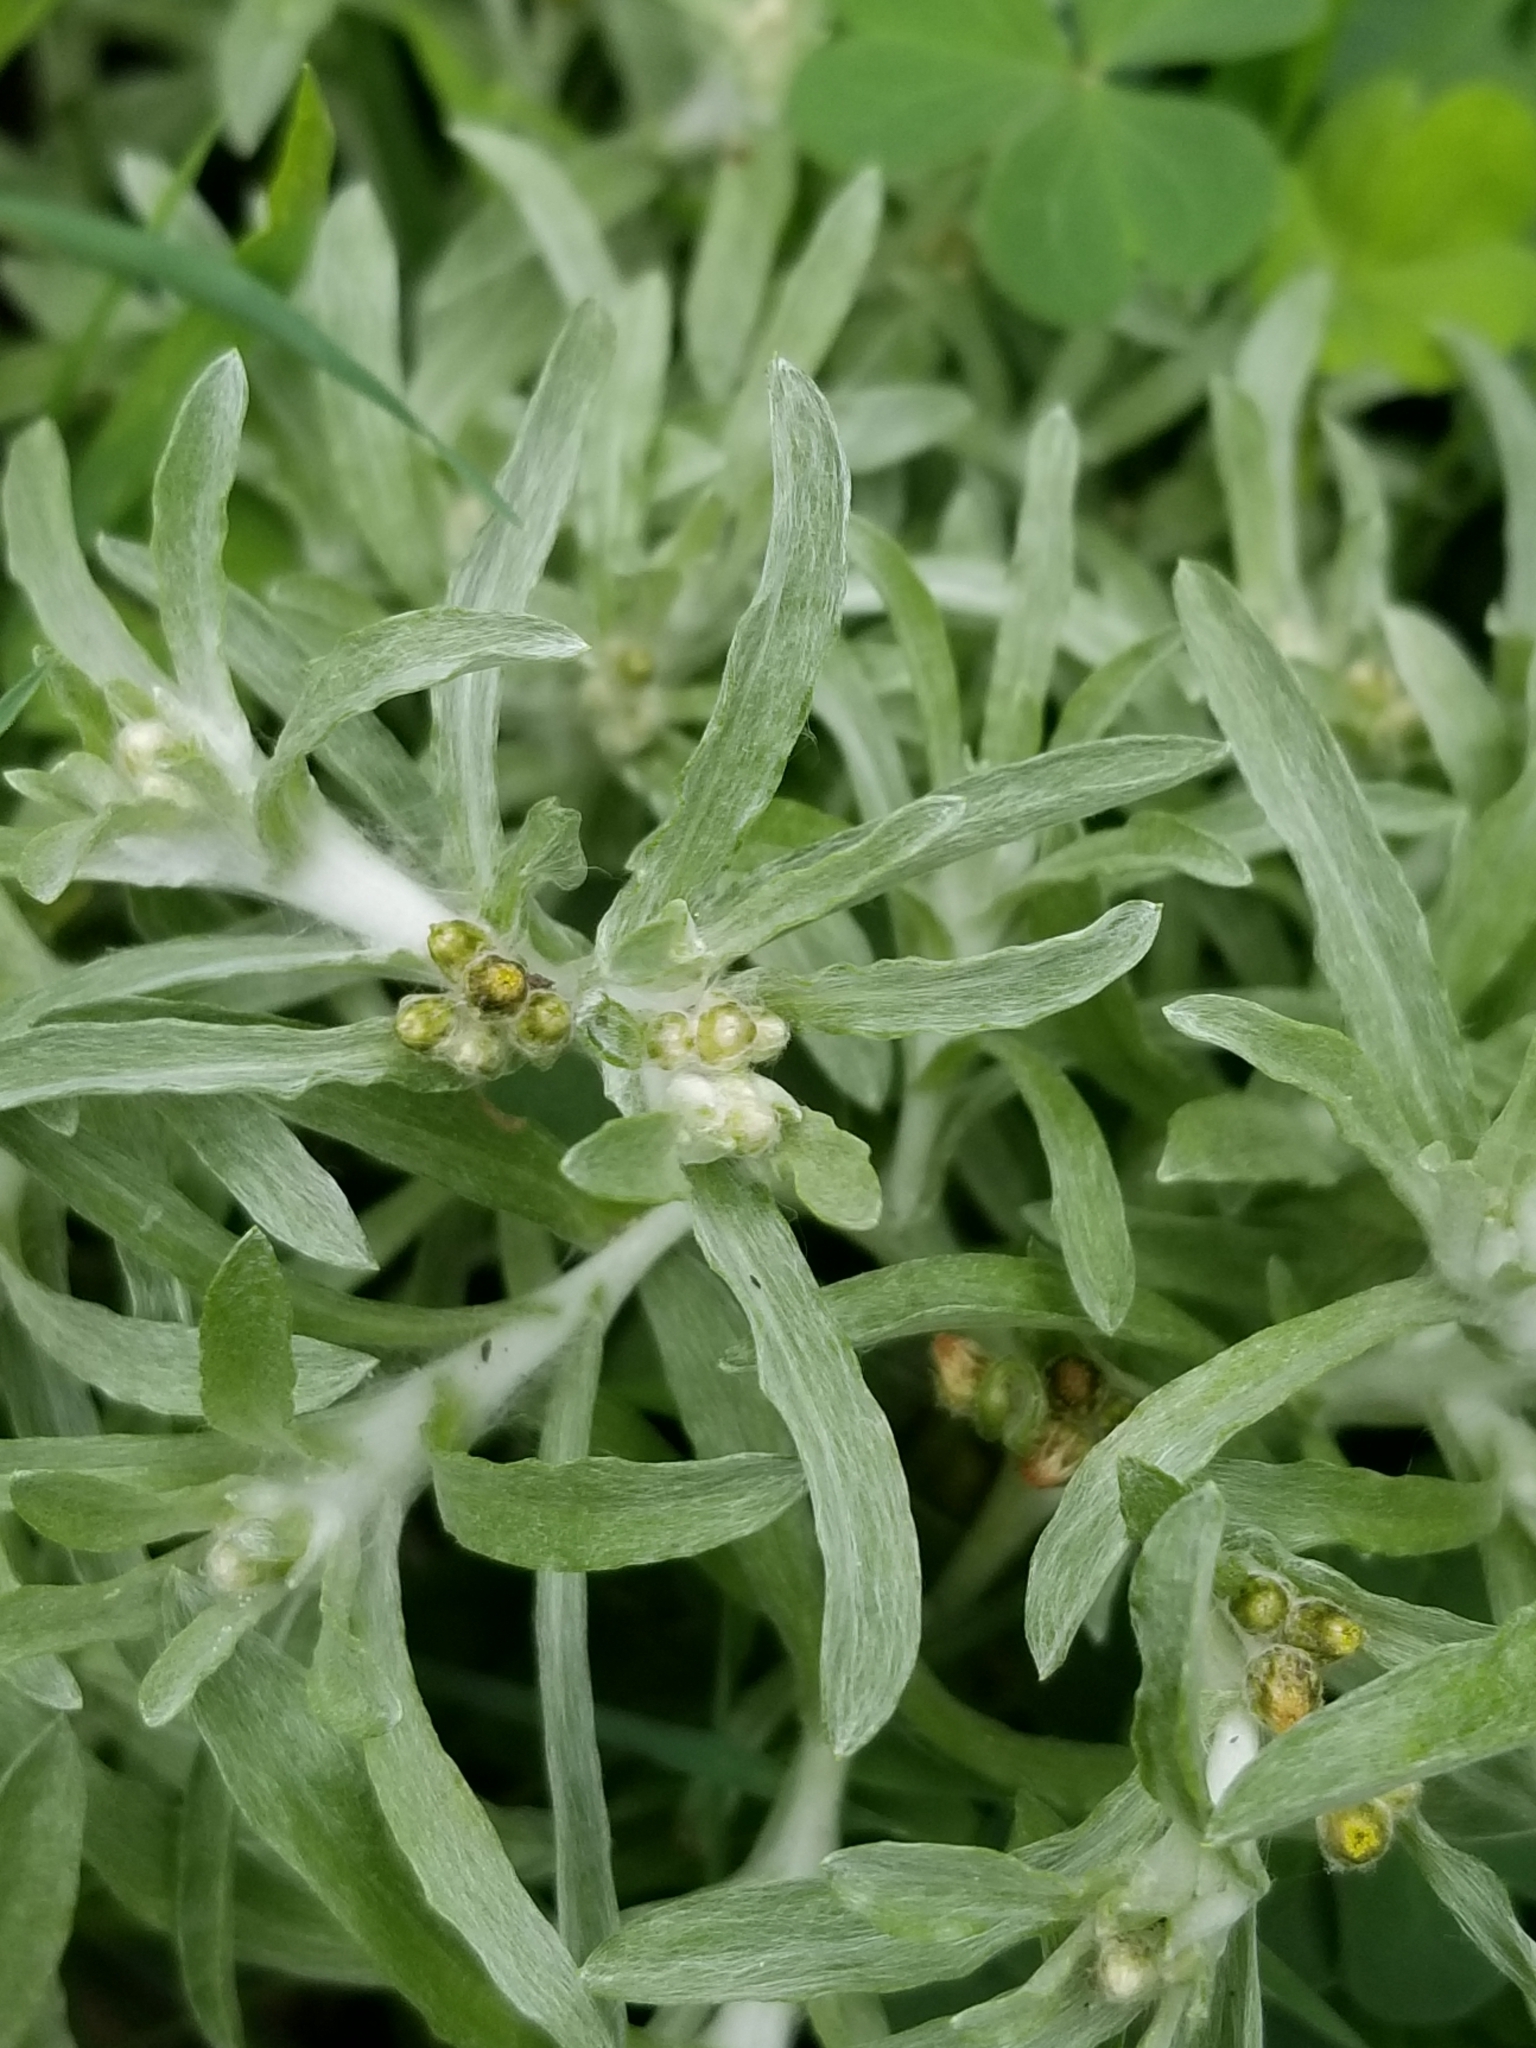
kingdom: Plantae
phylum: Tracheophyta
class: Magnoliopsida
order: Asterales
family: Asteraceae
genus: Gnaphalium
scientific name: Gnaphalium uliginosum
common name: Marsh cudweed
